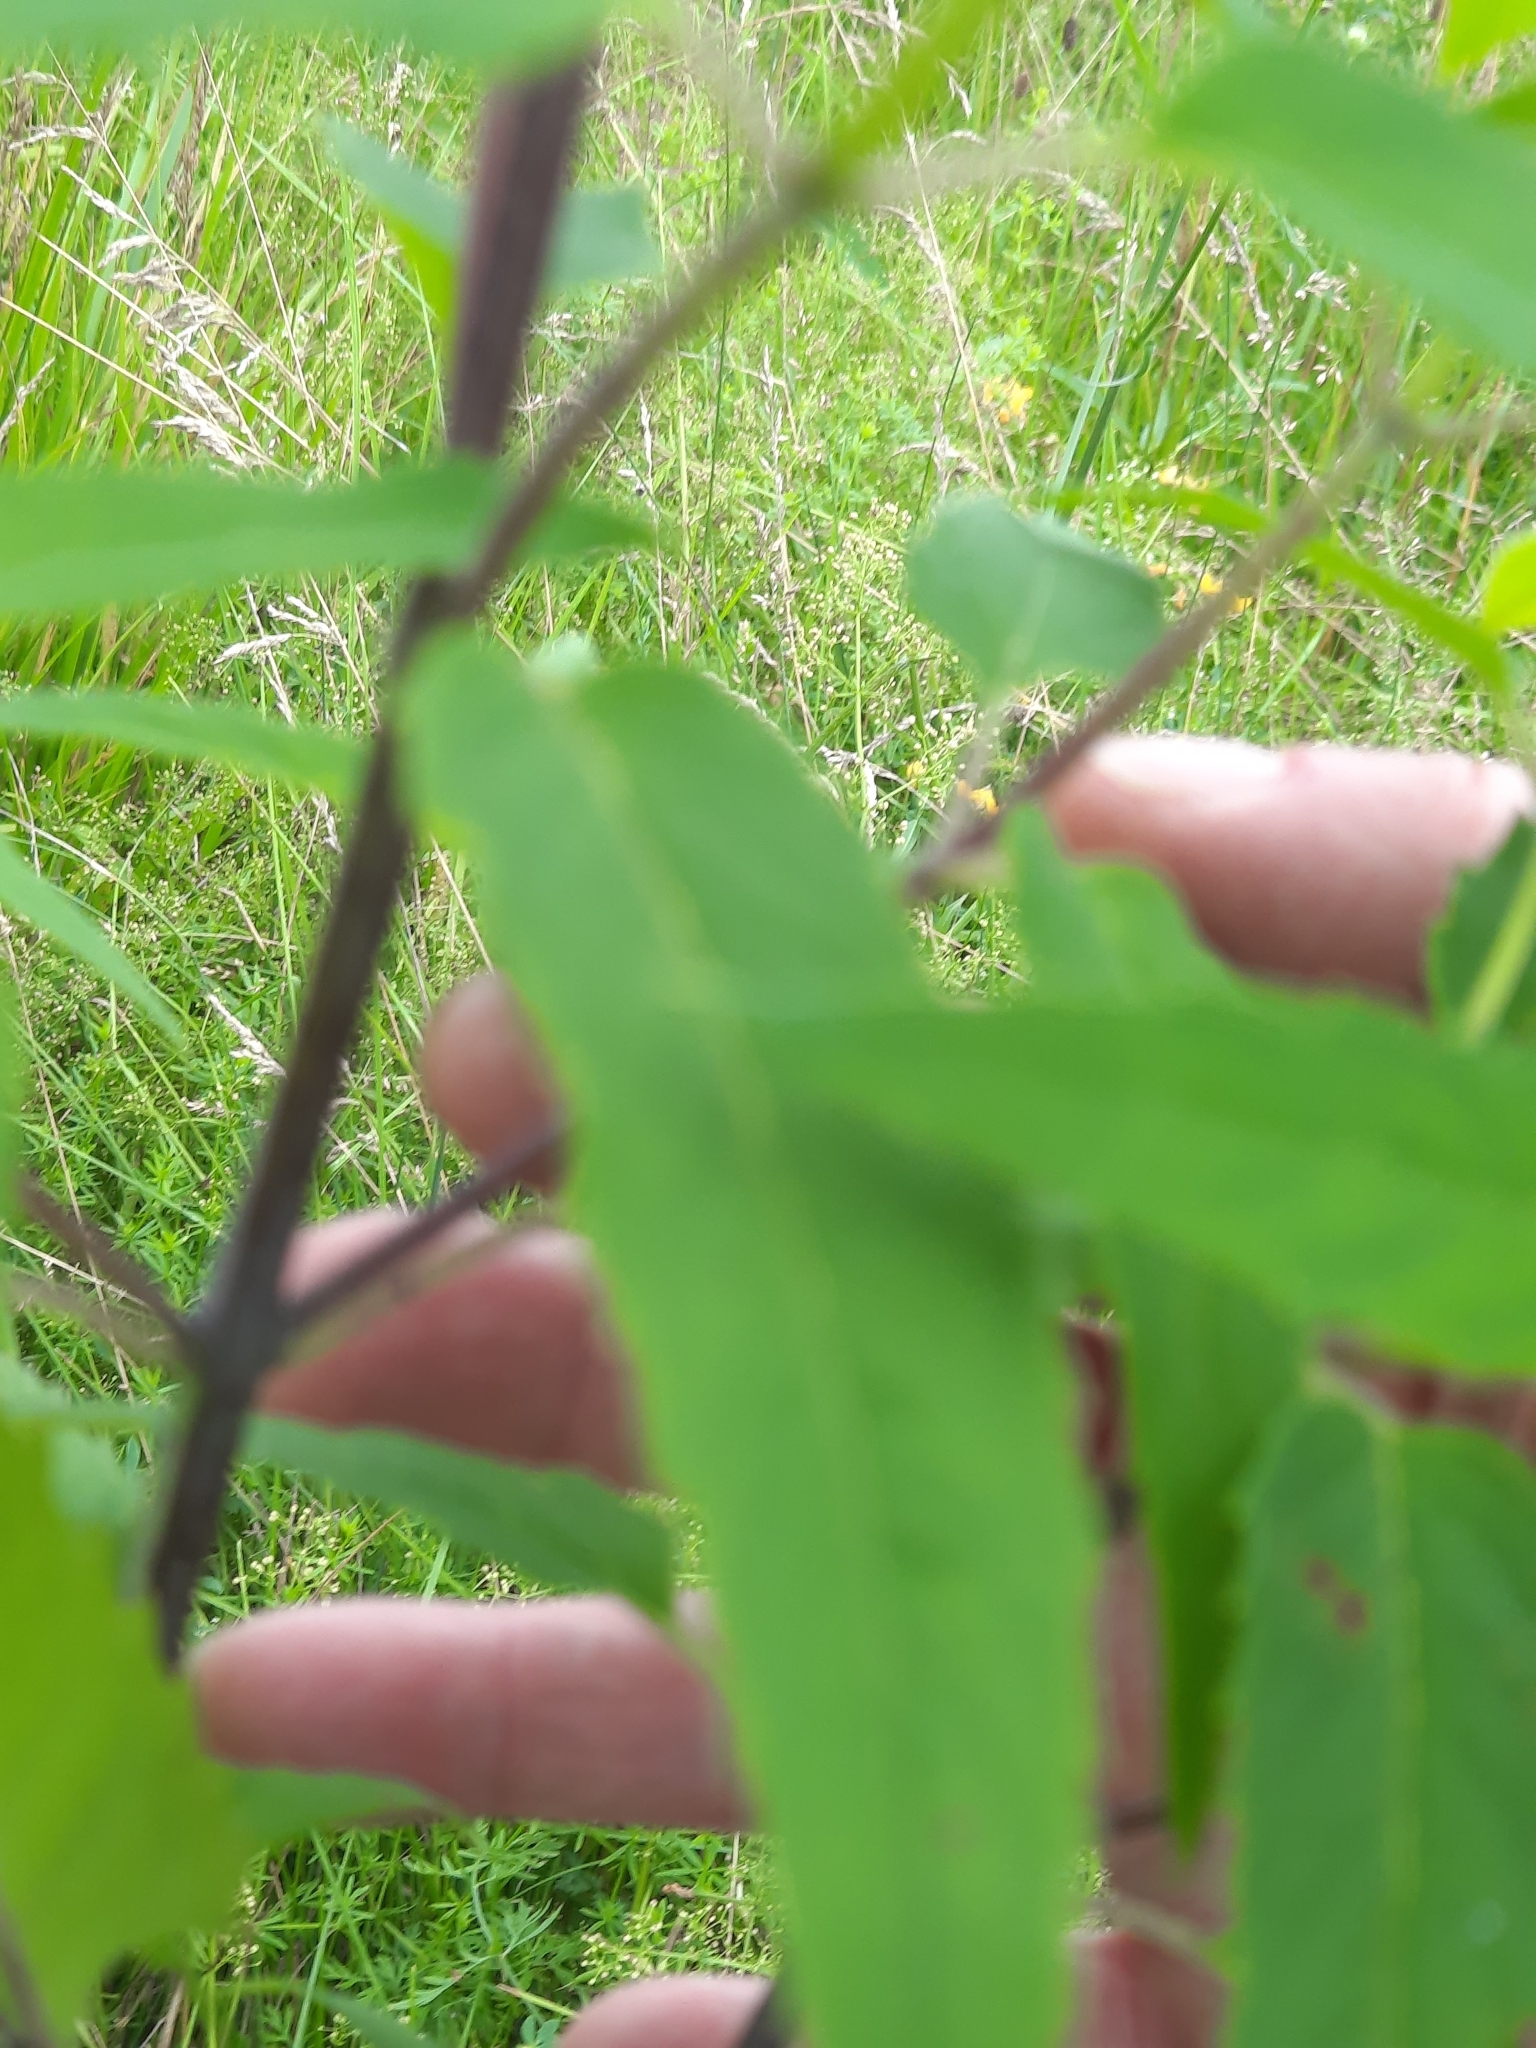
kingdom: Plantae
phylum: Tracheophyta
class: Magnoliopsida
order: Lamiales
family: Lamiaceae
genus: Monarda
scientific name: Monarda fistulosa
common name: Purple beebalm
